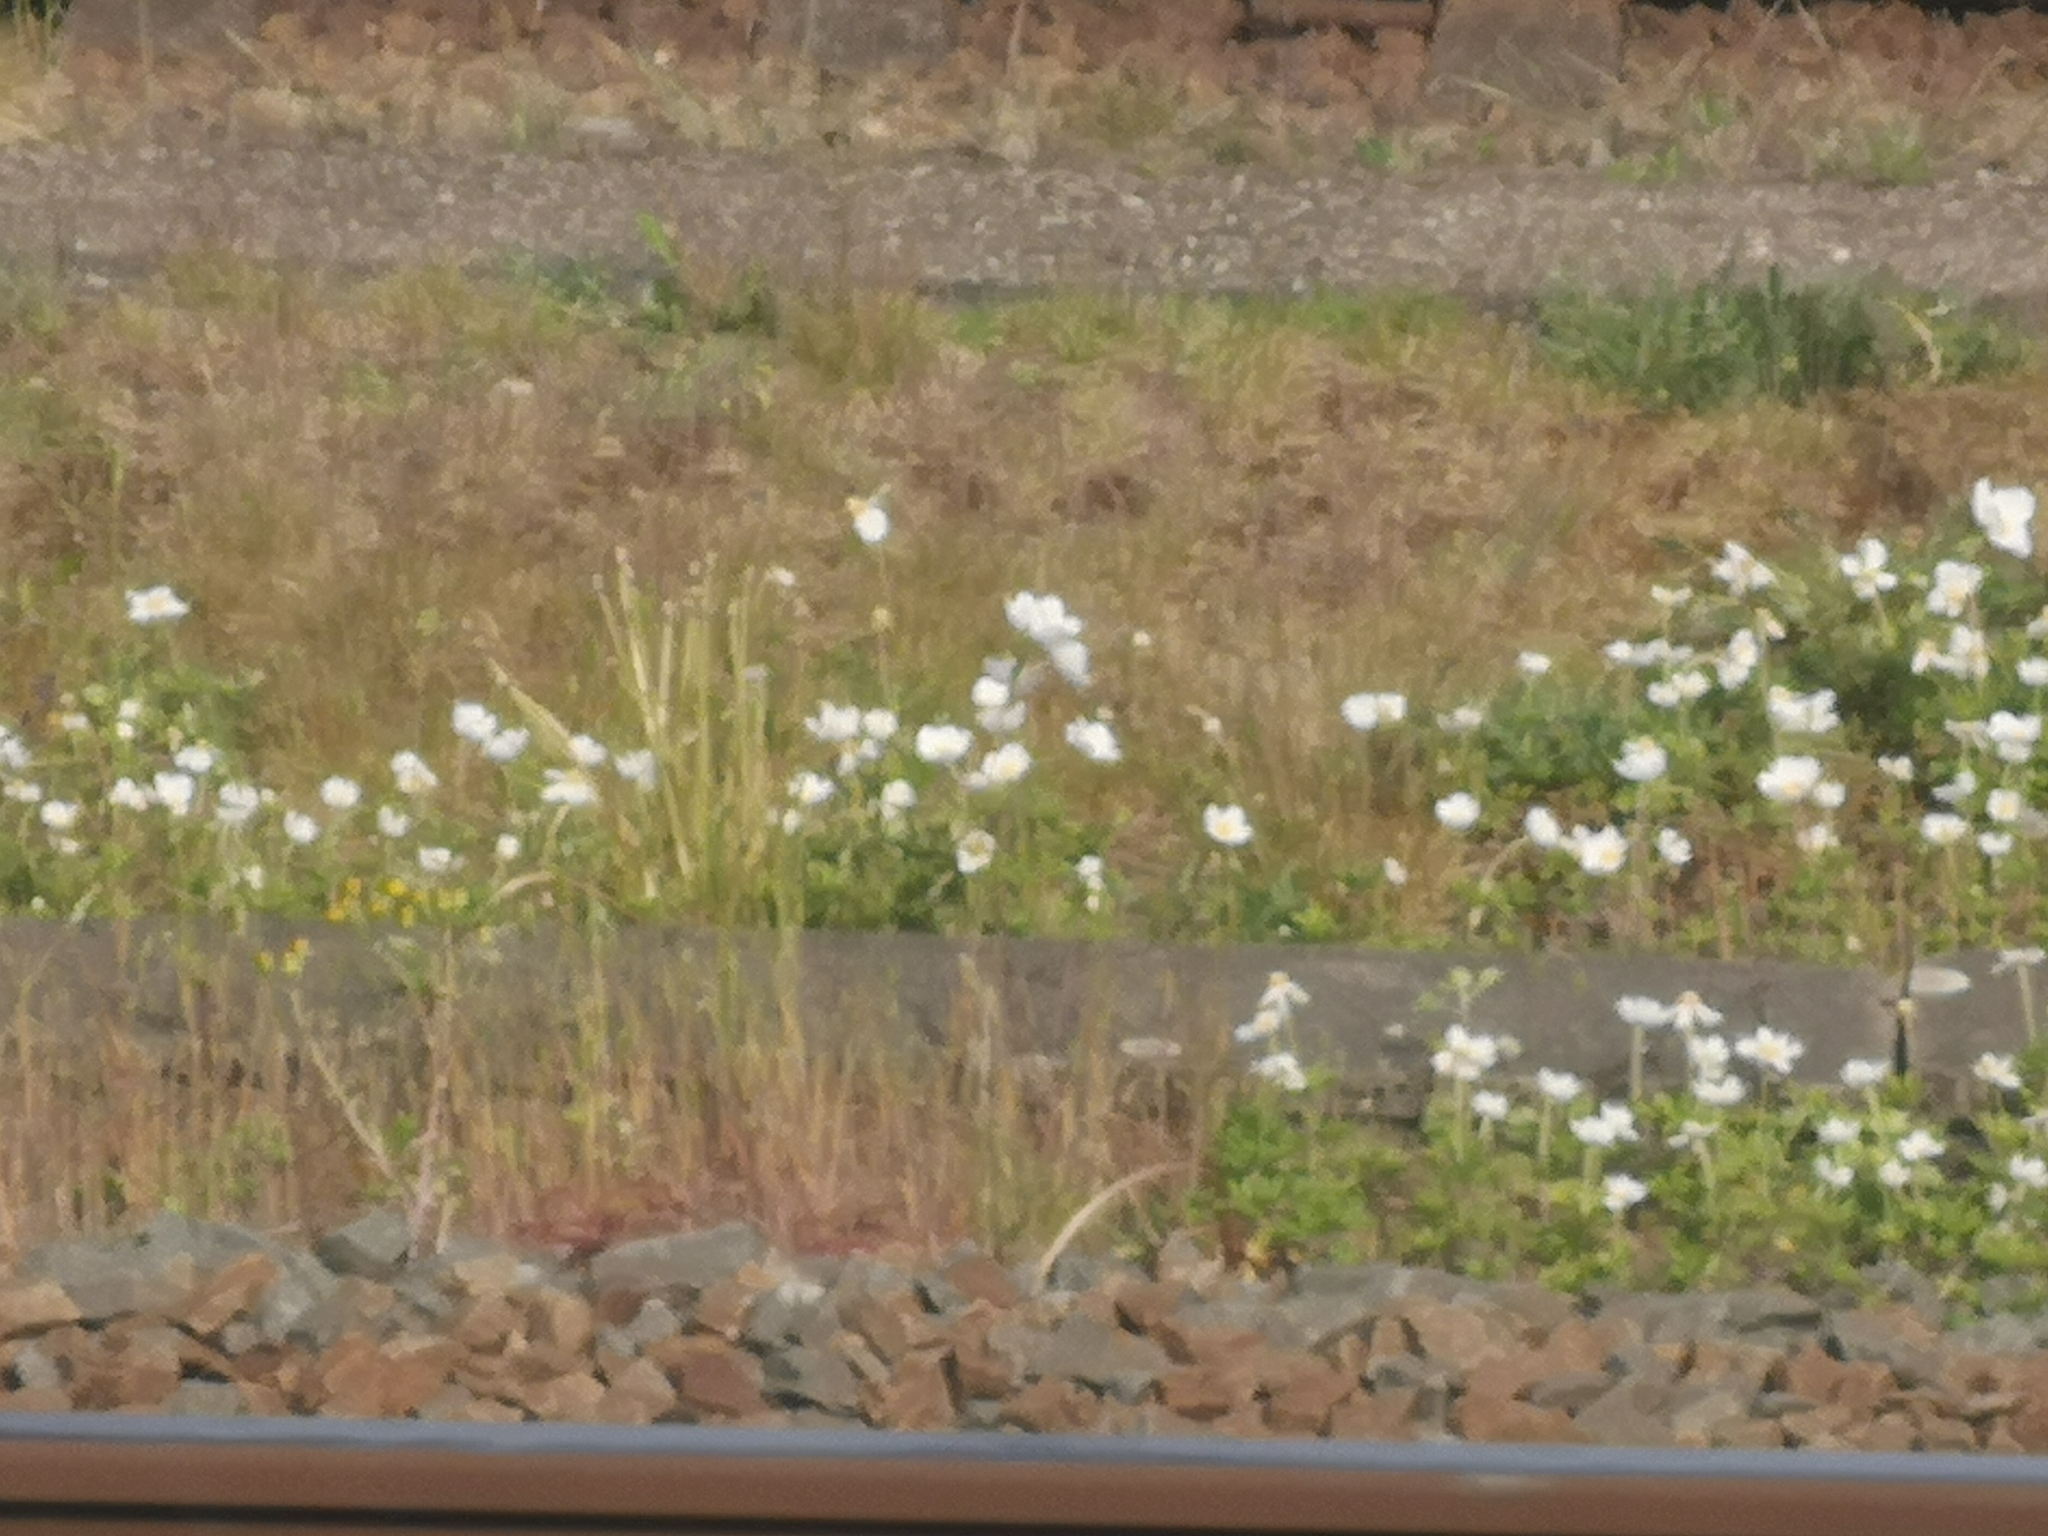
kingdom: Plantae
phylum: Tracheophyta
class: Magnoliopsida
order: Ranunculales
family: Ranunculaceae
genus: Anemone
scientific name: Anemone sylvestris
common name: Snowdrop anemone
